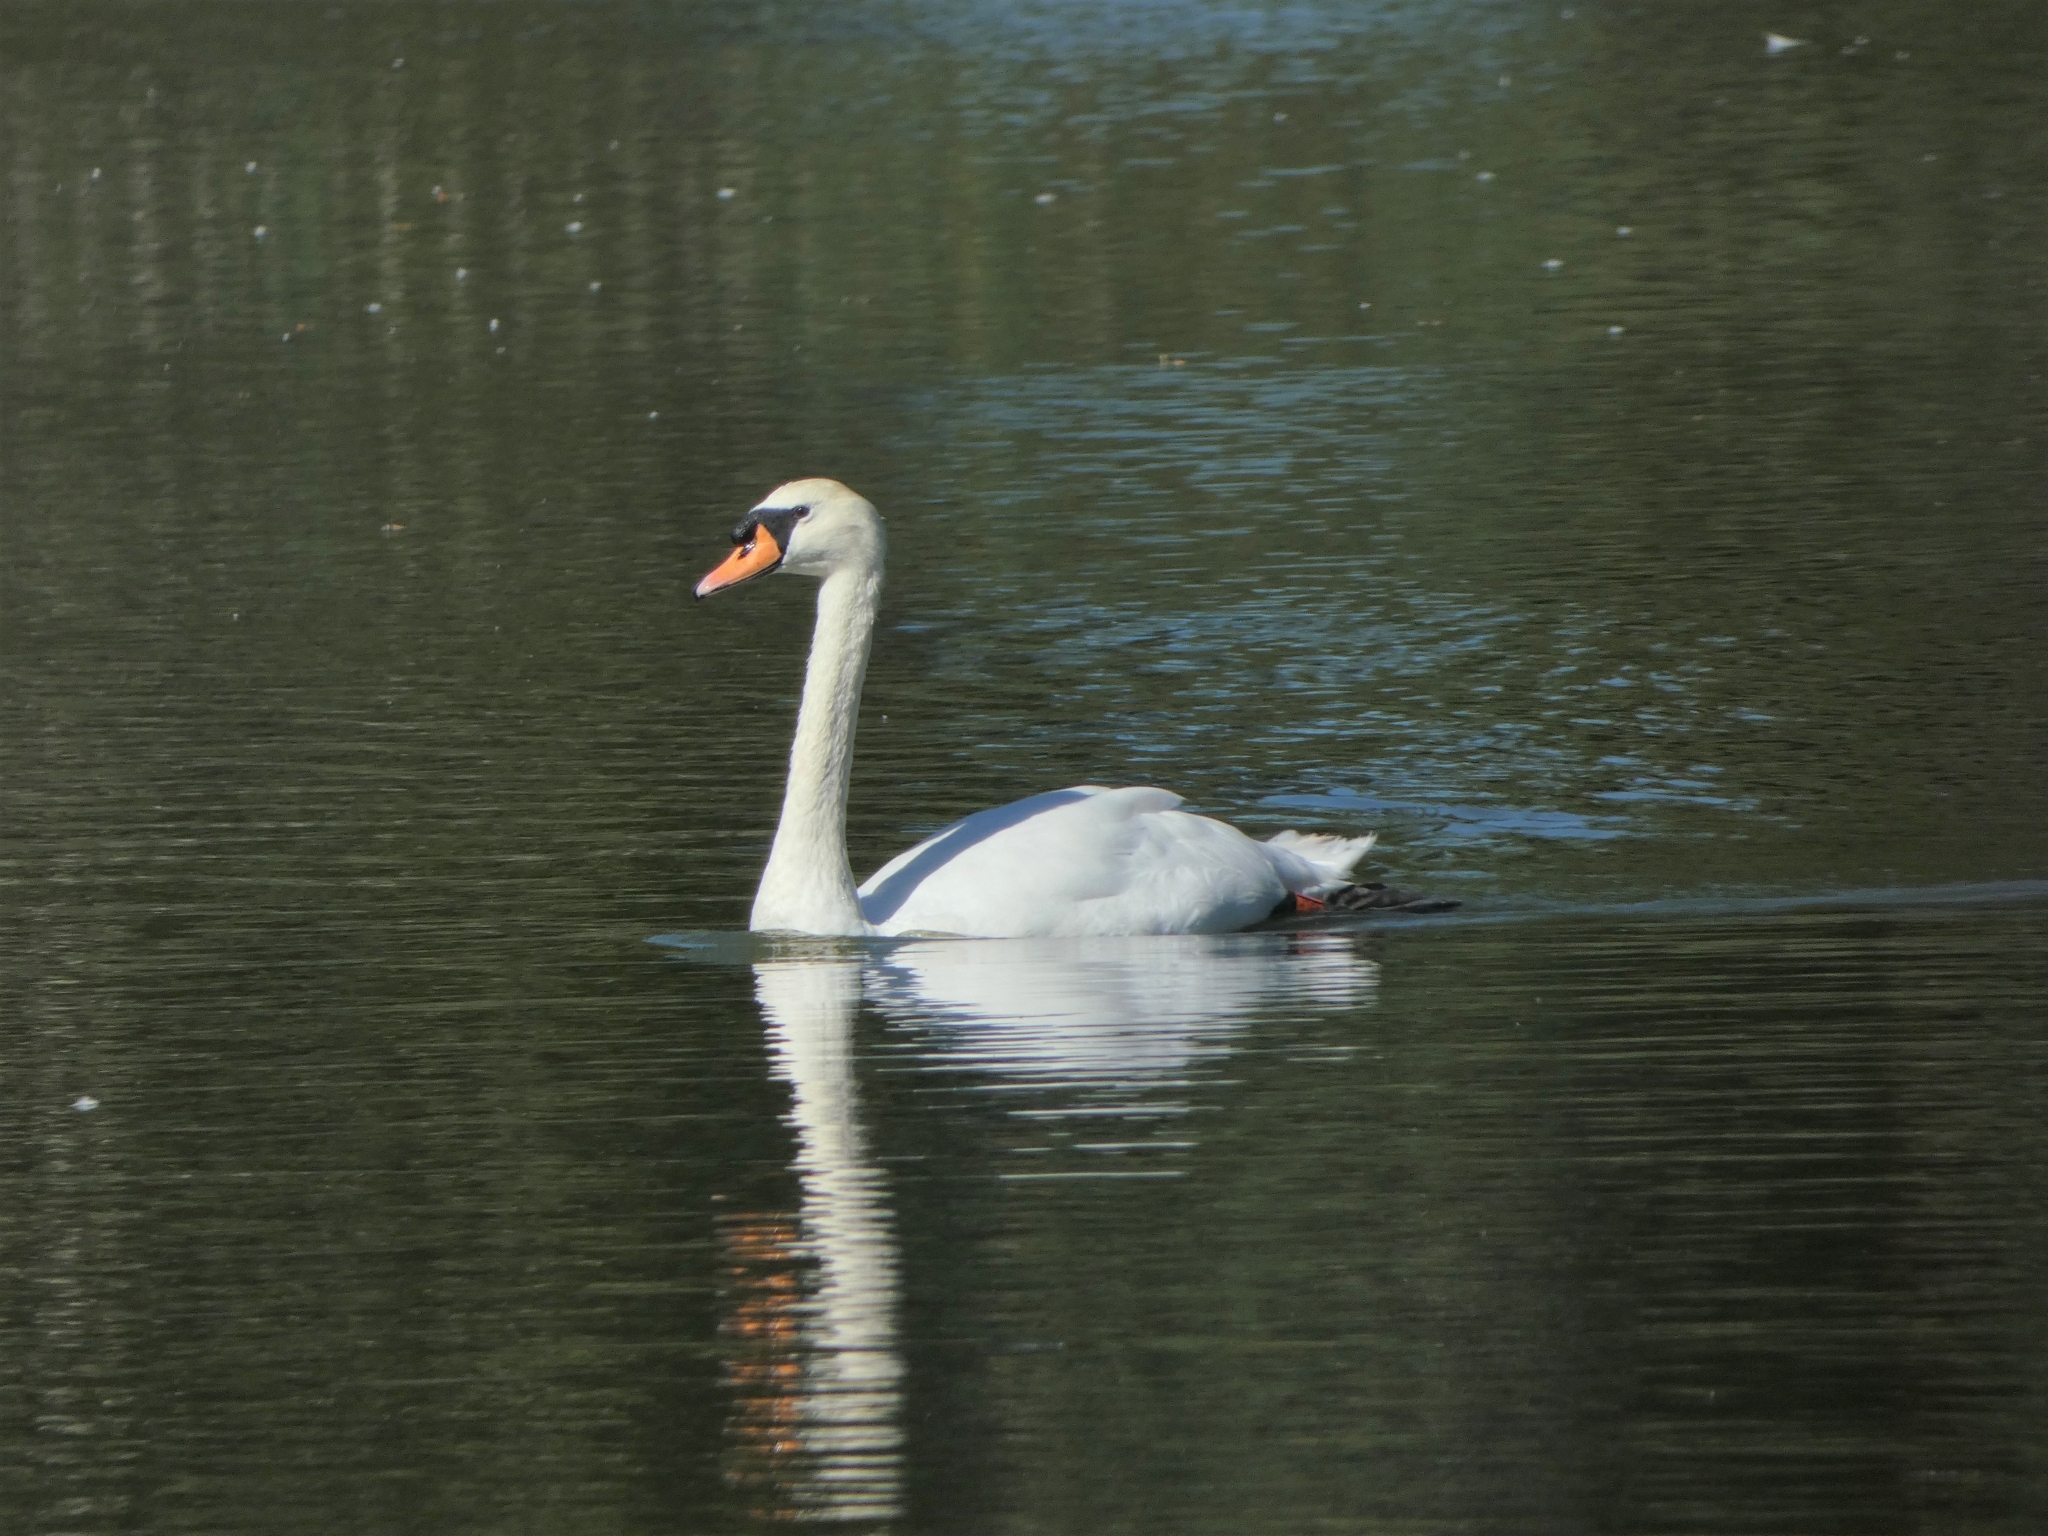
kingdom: Animalia
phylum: Chordata
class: Aves
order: Anseriformes
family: Anatidae
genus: Cygnus
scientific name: Cygnus olor
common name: Mute swan
